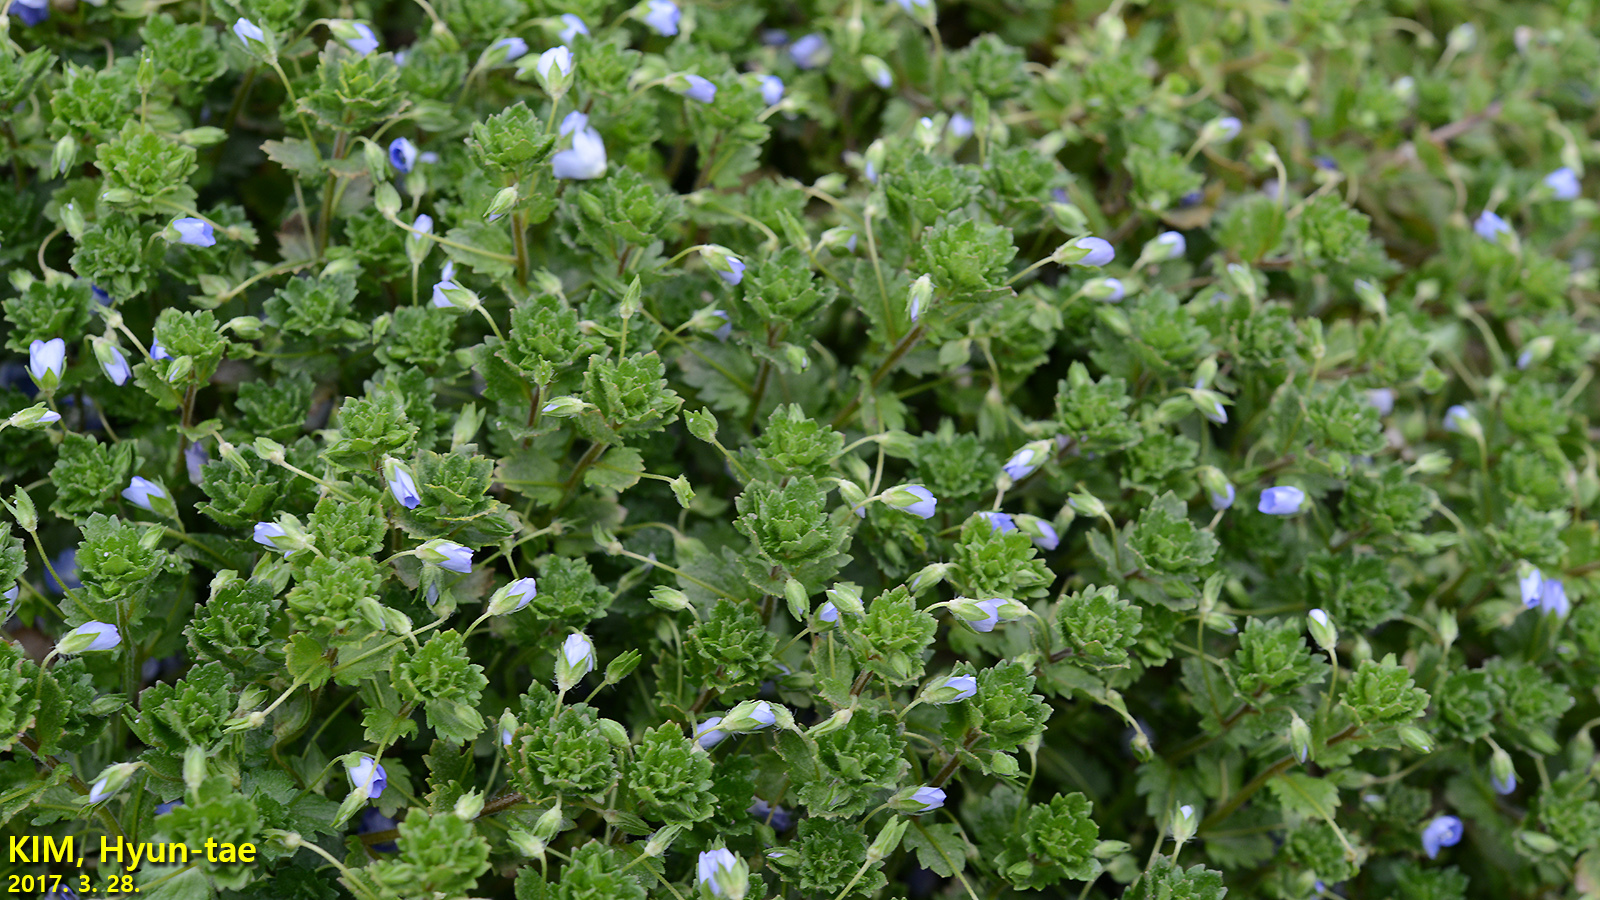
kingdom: Plantae
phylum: Tracheophyta
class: Magnoliopsida
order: Lamiales
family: Plantaginaceae
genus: Veronica
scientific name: Veronica persica
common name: Common field-speedwell
